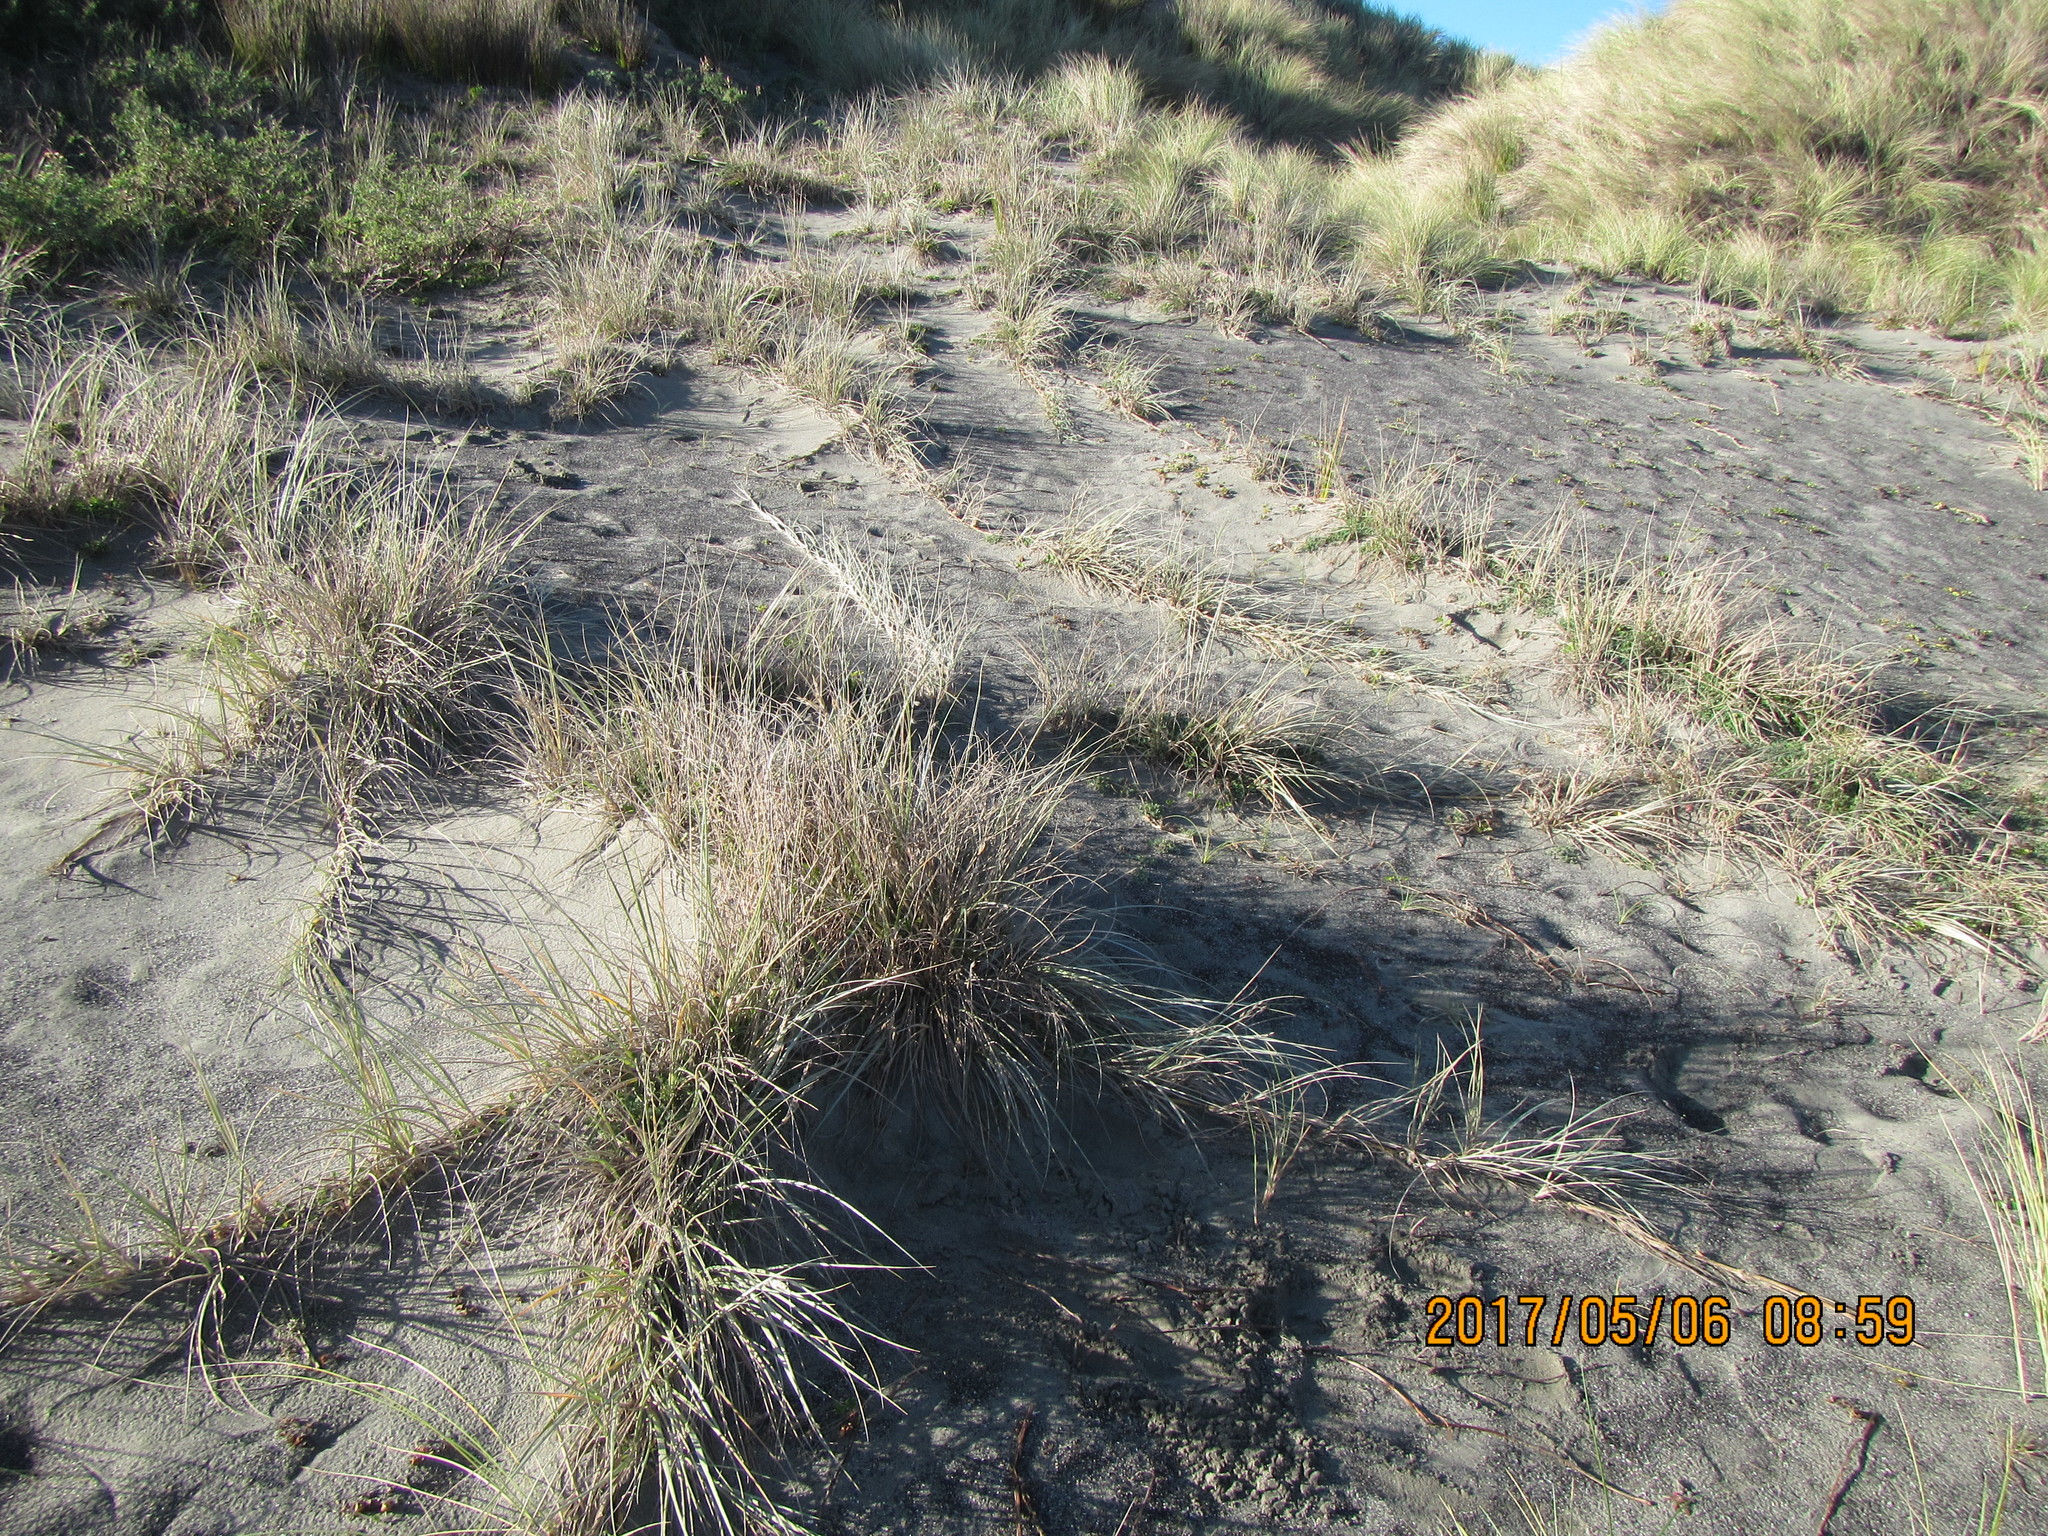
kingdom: Plantae
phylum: Tracheophyta
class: Liliopsida
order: Poales
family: Poaceae
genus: Spinifex
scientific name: Spinifex sericeus
